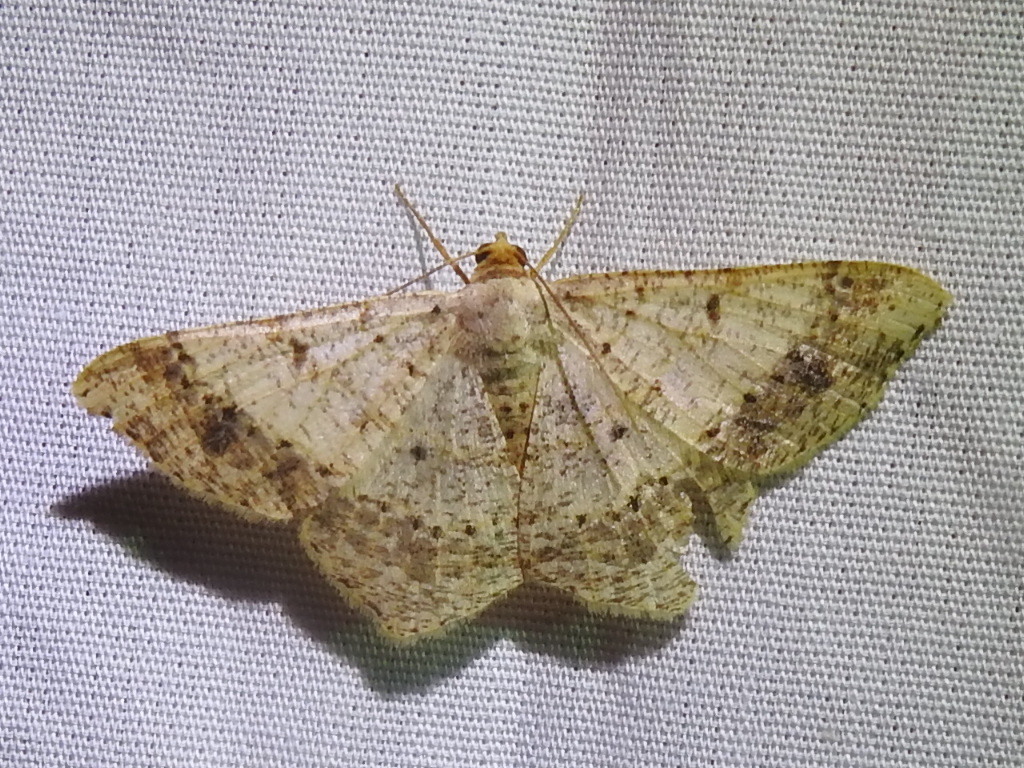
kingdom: Animalia
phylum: Arthropoda
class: Insecta
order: Lepidoptera
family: Geometridae
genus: Macaria
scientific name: Macaria abydata
